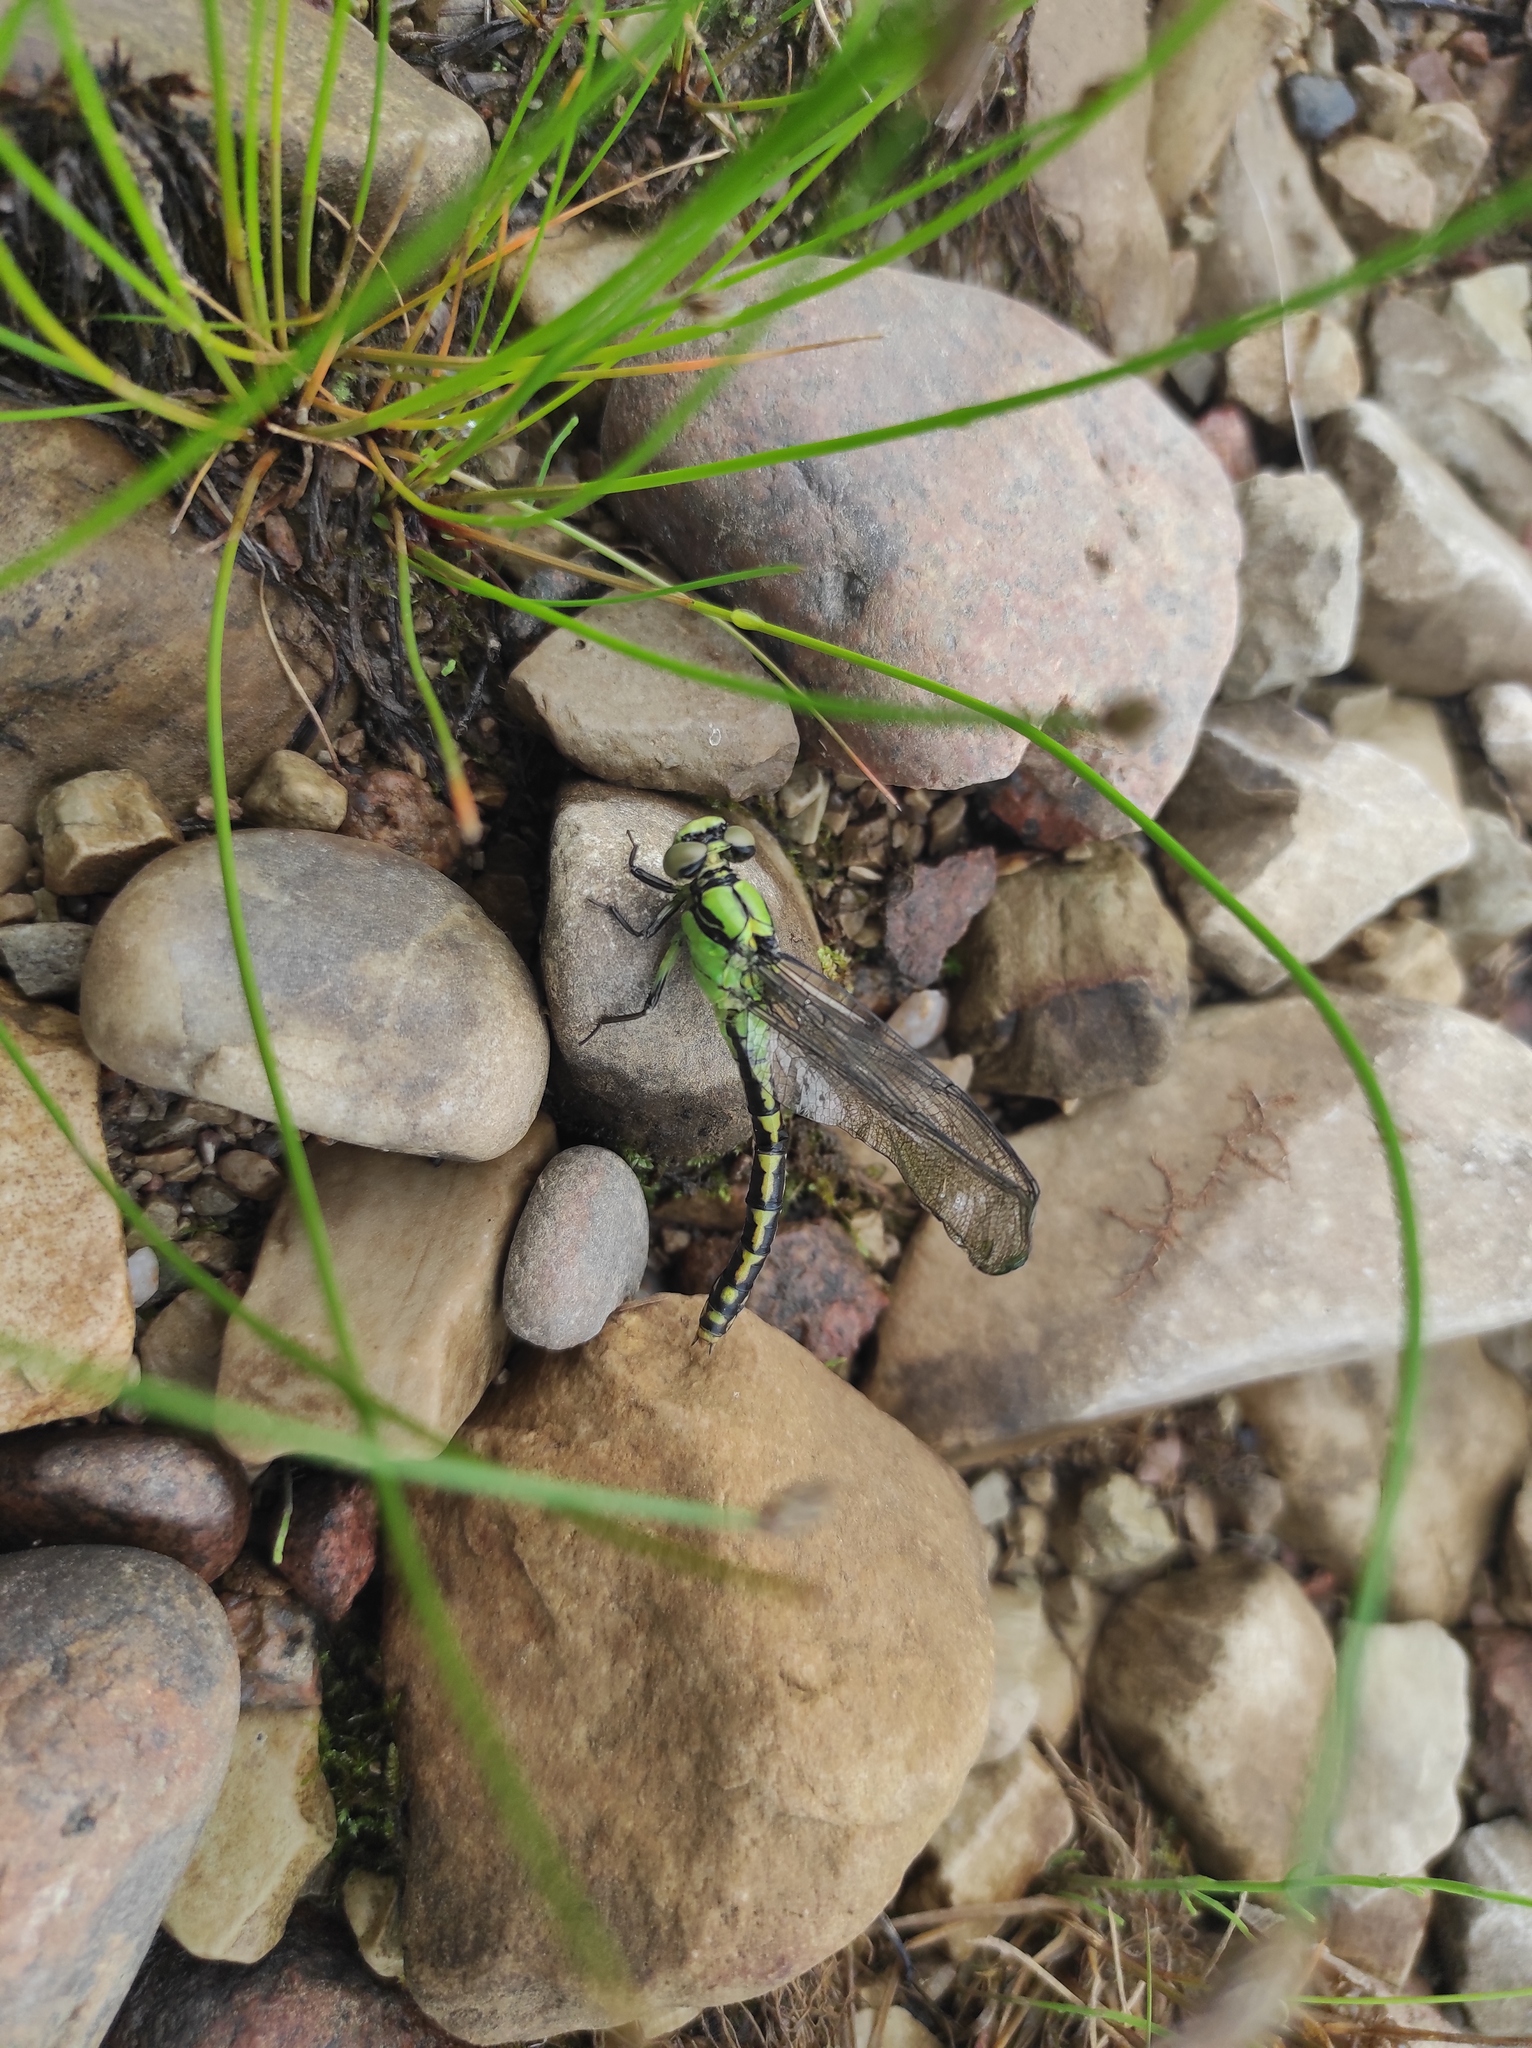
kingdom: Animalia
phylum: Arthropoda
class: Insecta
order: Odonata
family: Gomphidae
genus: Ophiogomphus
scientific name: Ophiogomphus obscurus
